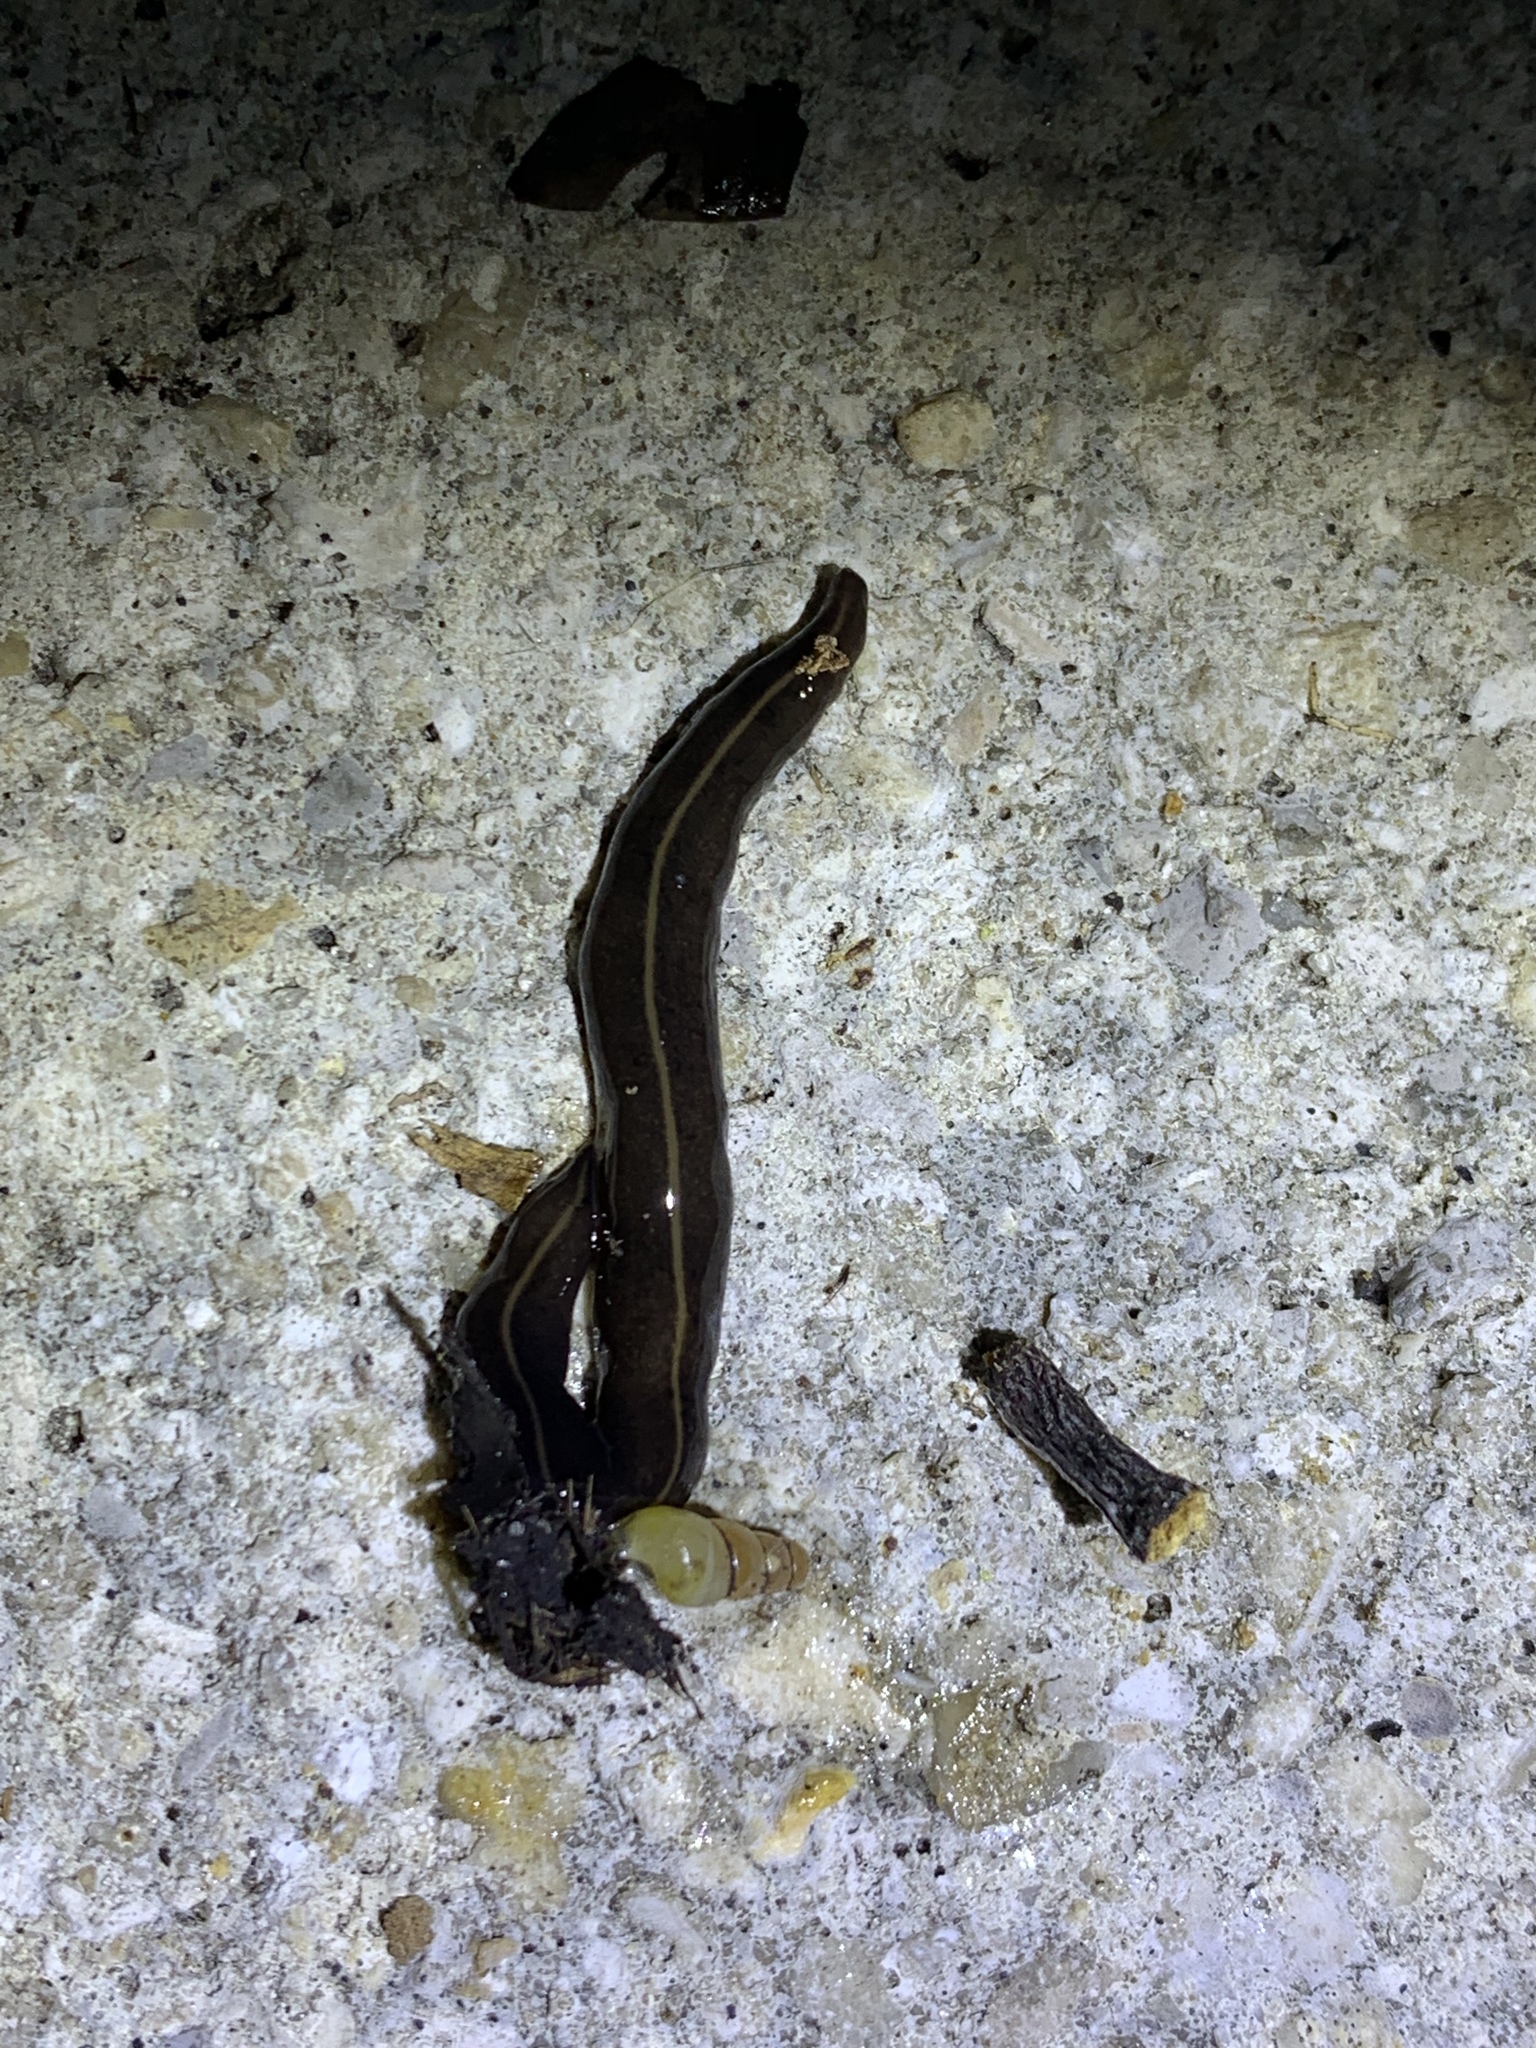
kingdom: Animalia
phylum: Platyhelminthes
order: Tricladida
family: Geoplanidae
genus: Platydemus
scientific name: Platydemus manokwari
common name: New guinea flatworm
